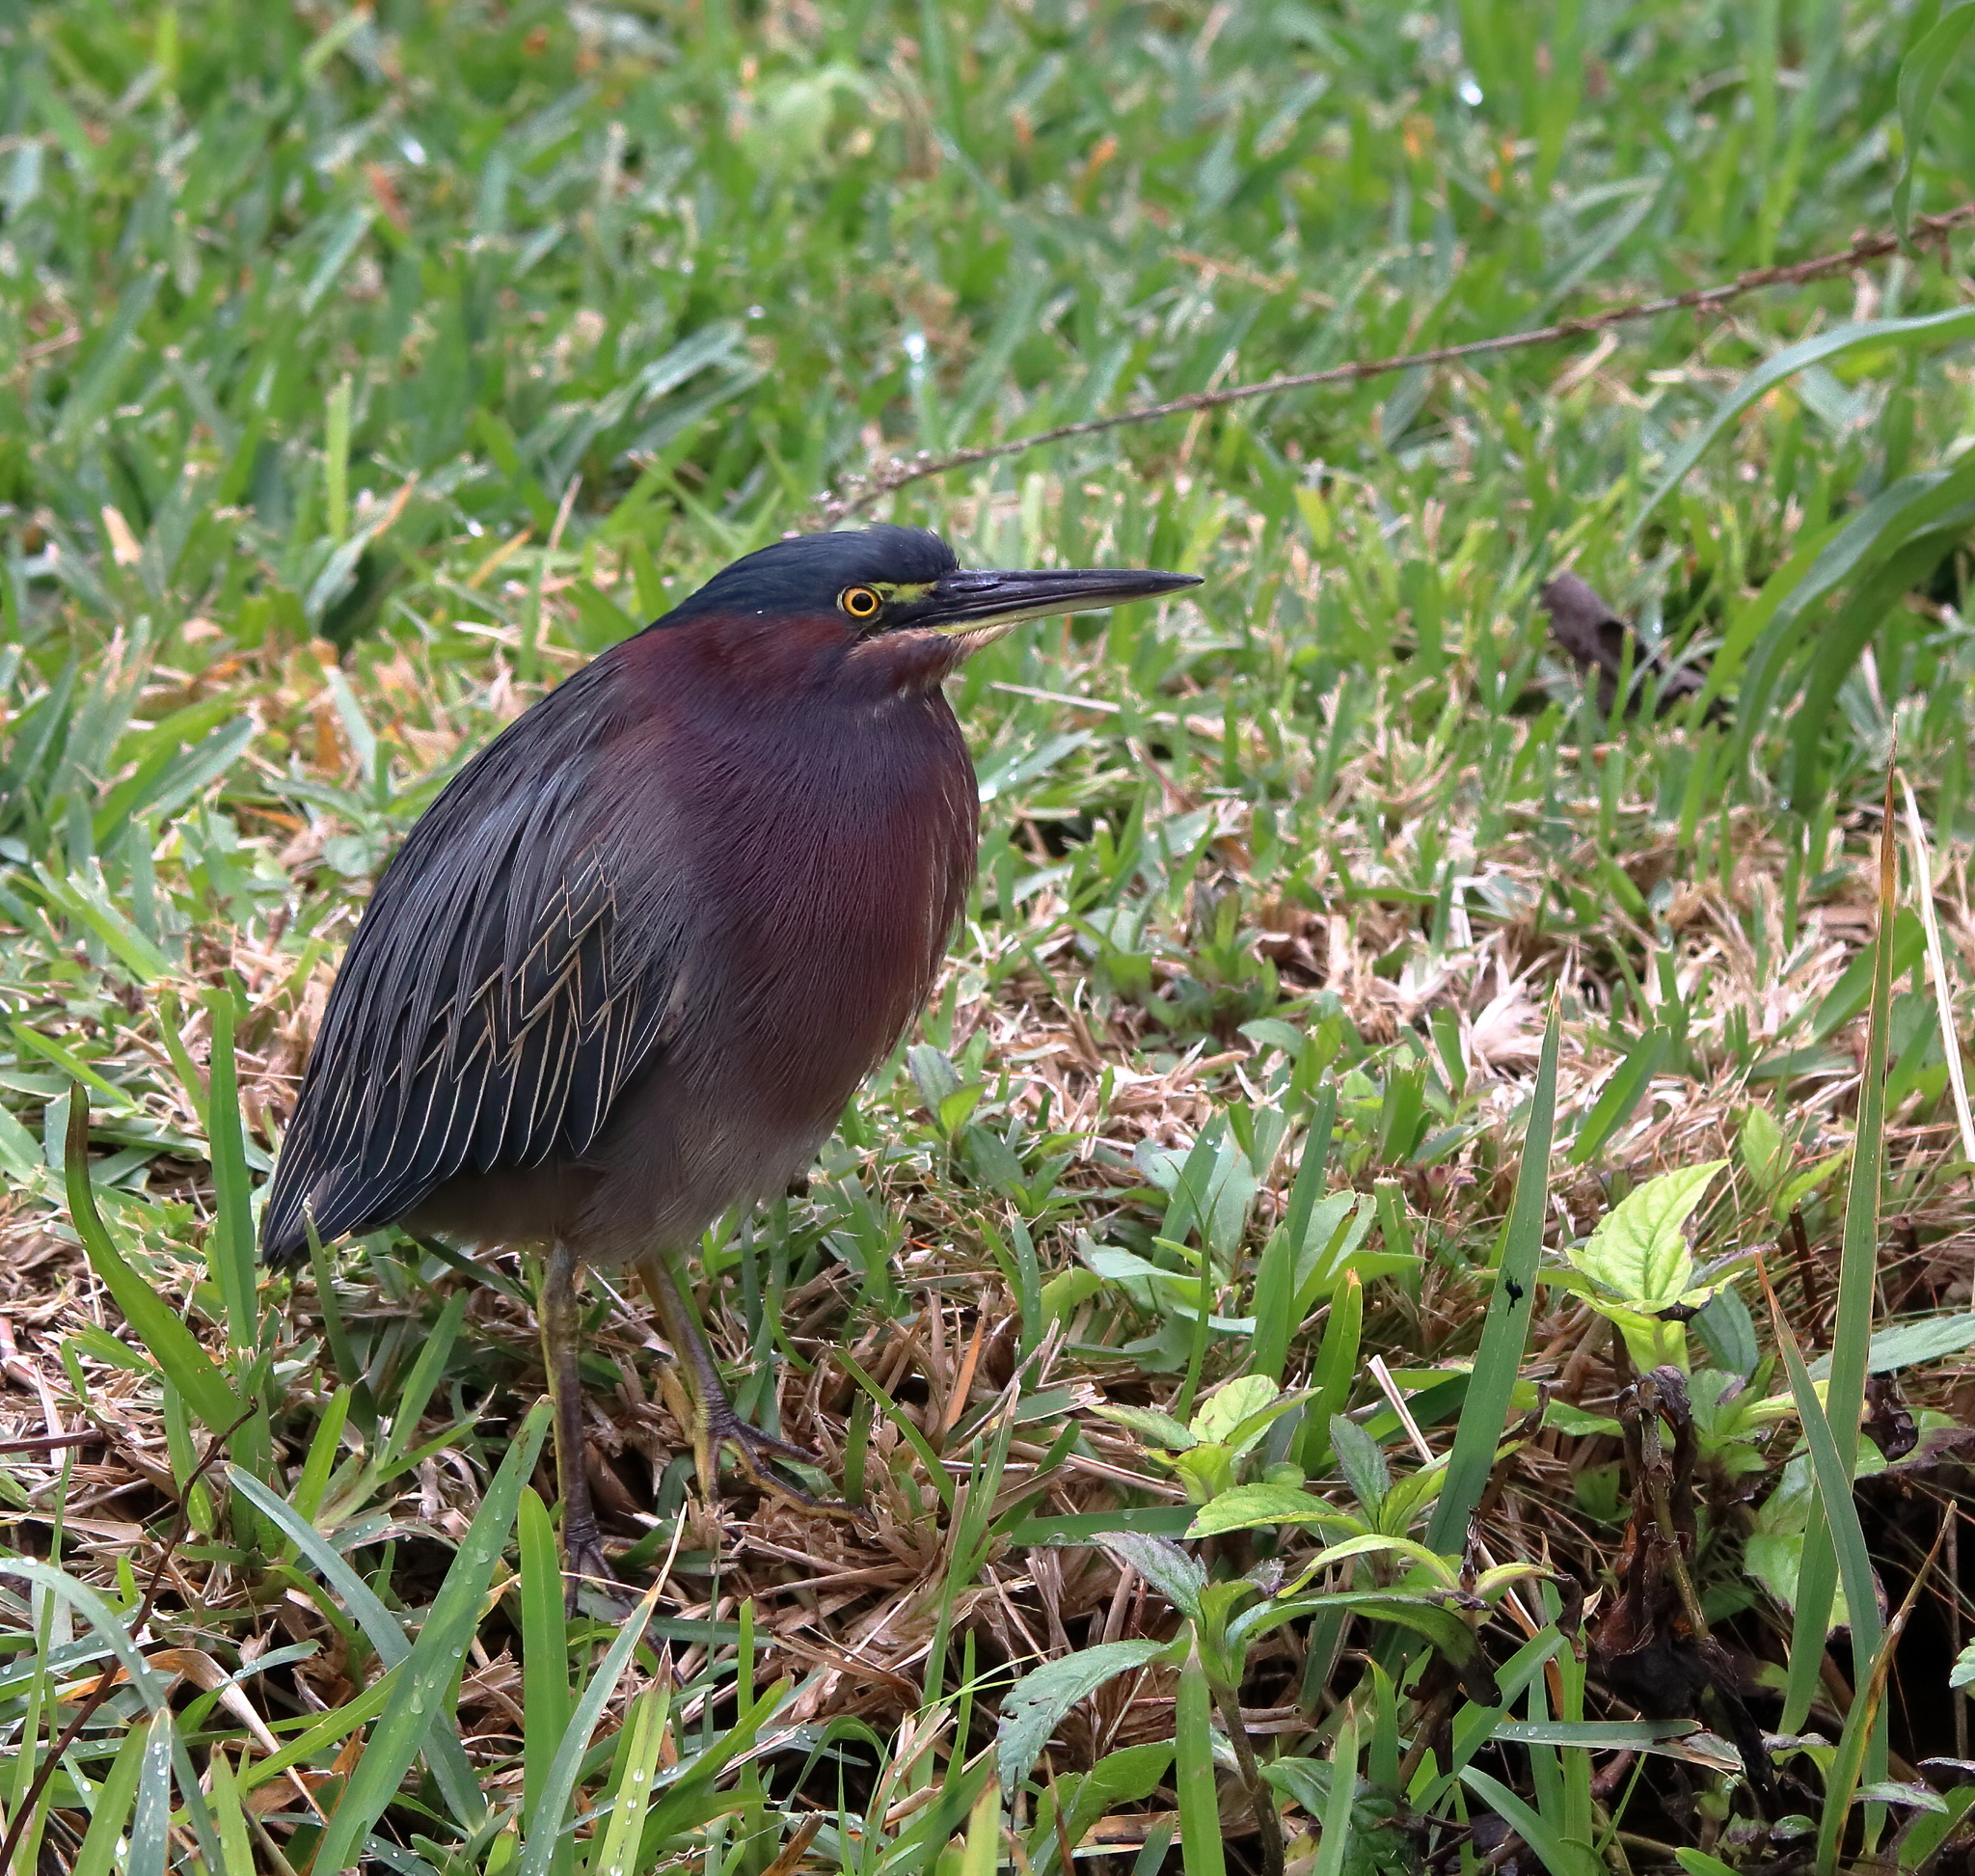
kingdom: Animalia
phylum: Chordata
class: Aves
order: Pelecaniformes
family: Ardeidae
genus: Butorides
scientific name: Butorides virescens
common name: Green heron
